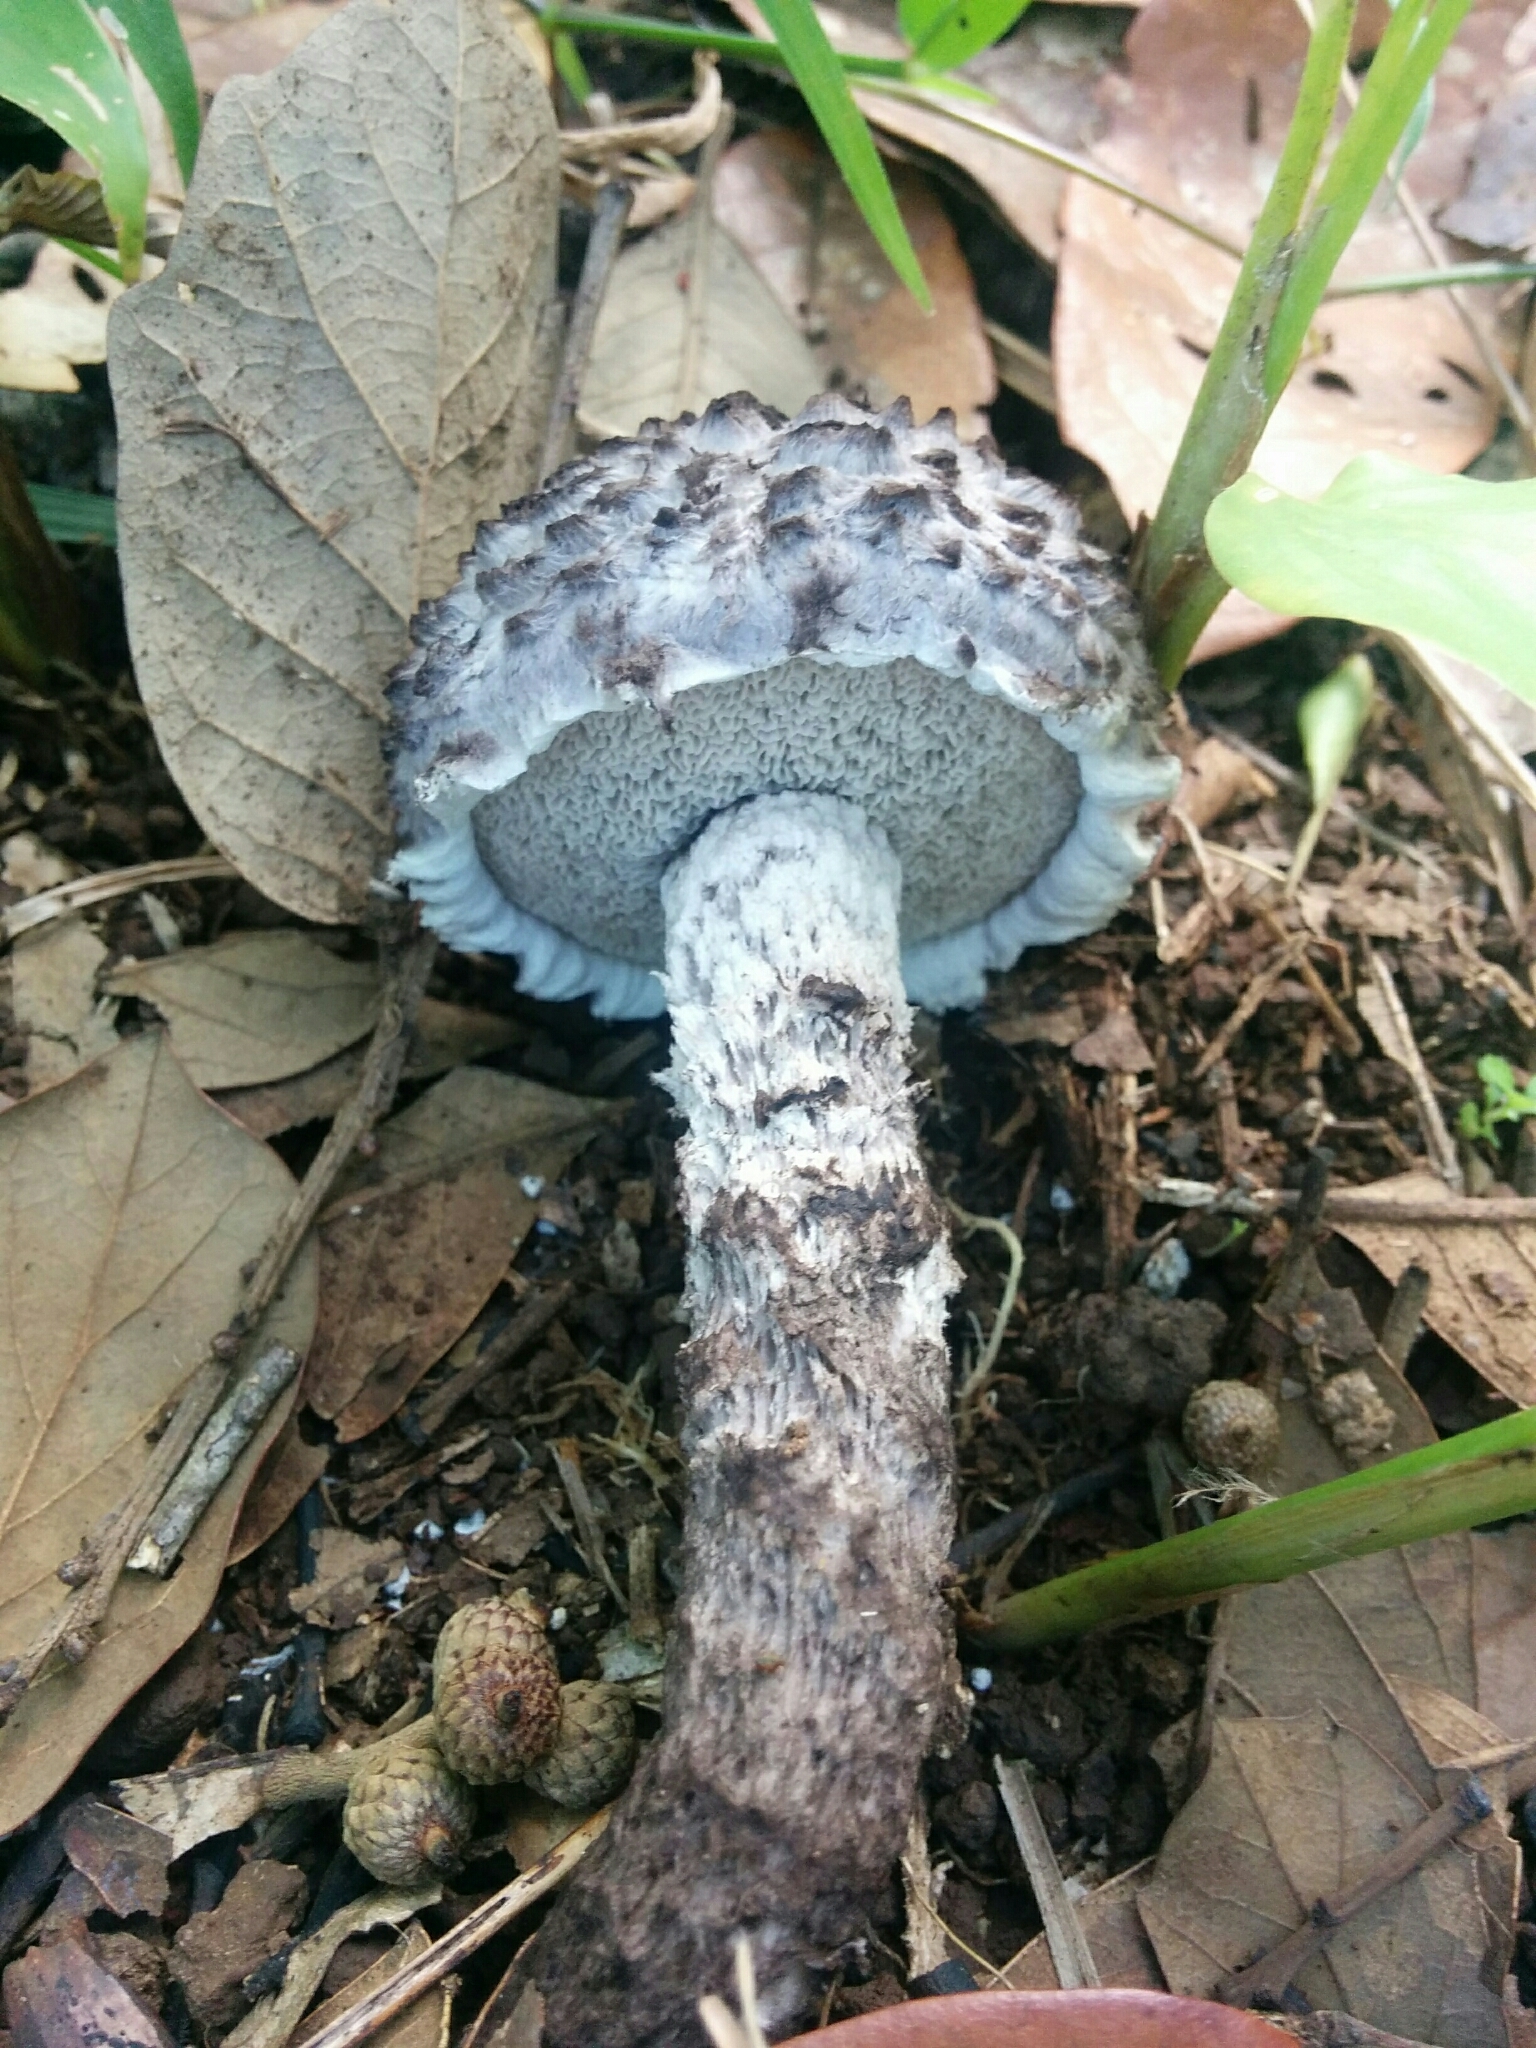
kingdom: Fungi
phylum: Basidiomycota
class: Agaricomycetes
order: Boletales
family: Boletaceae
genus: Strobilomyces
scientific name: Strobilomyces strobilaceus
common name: Old man of the woods
